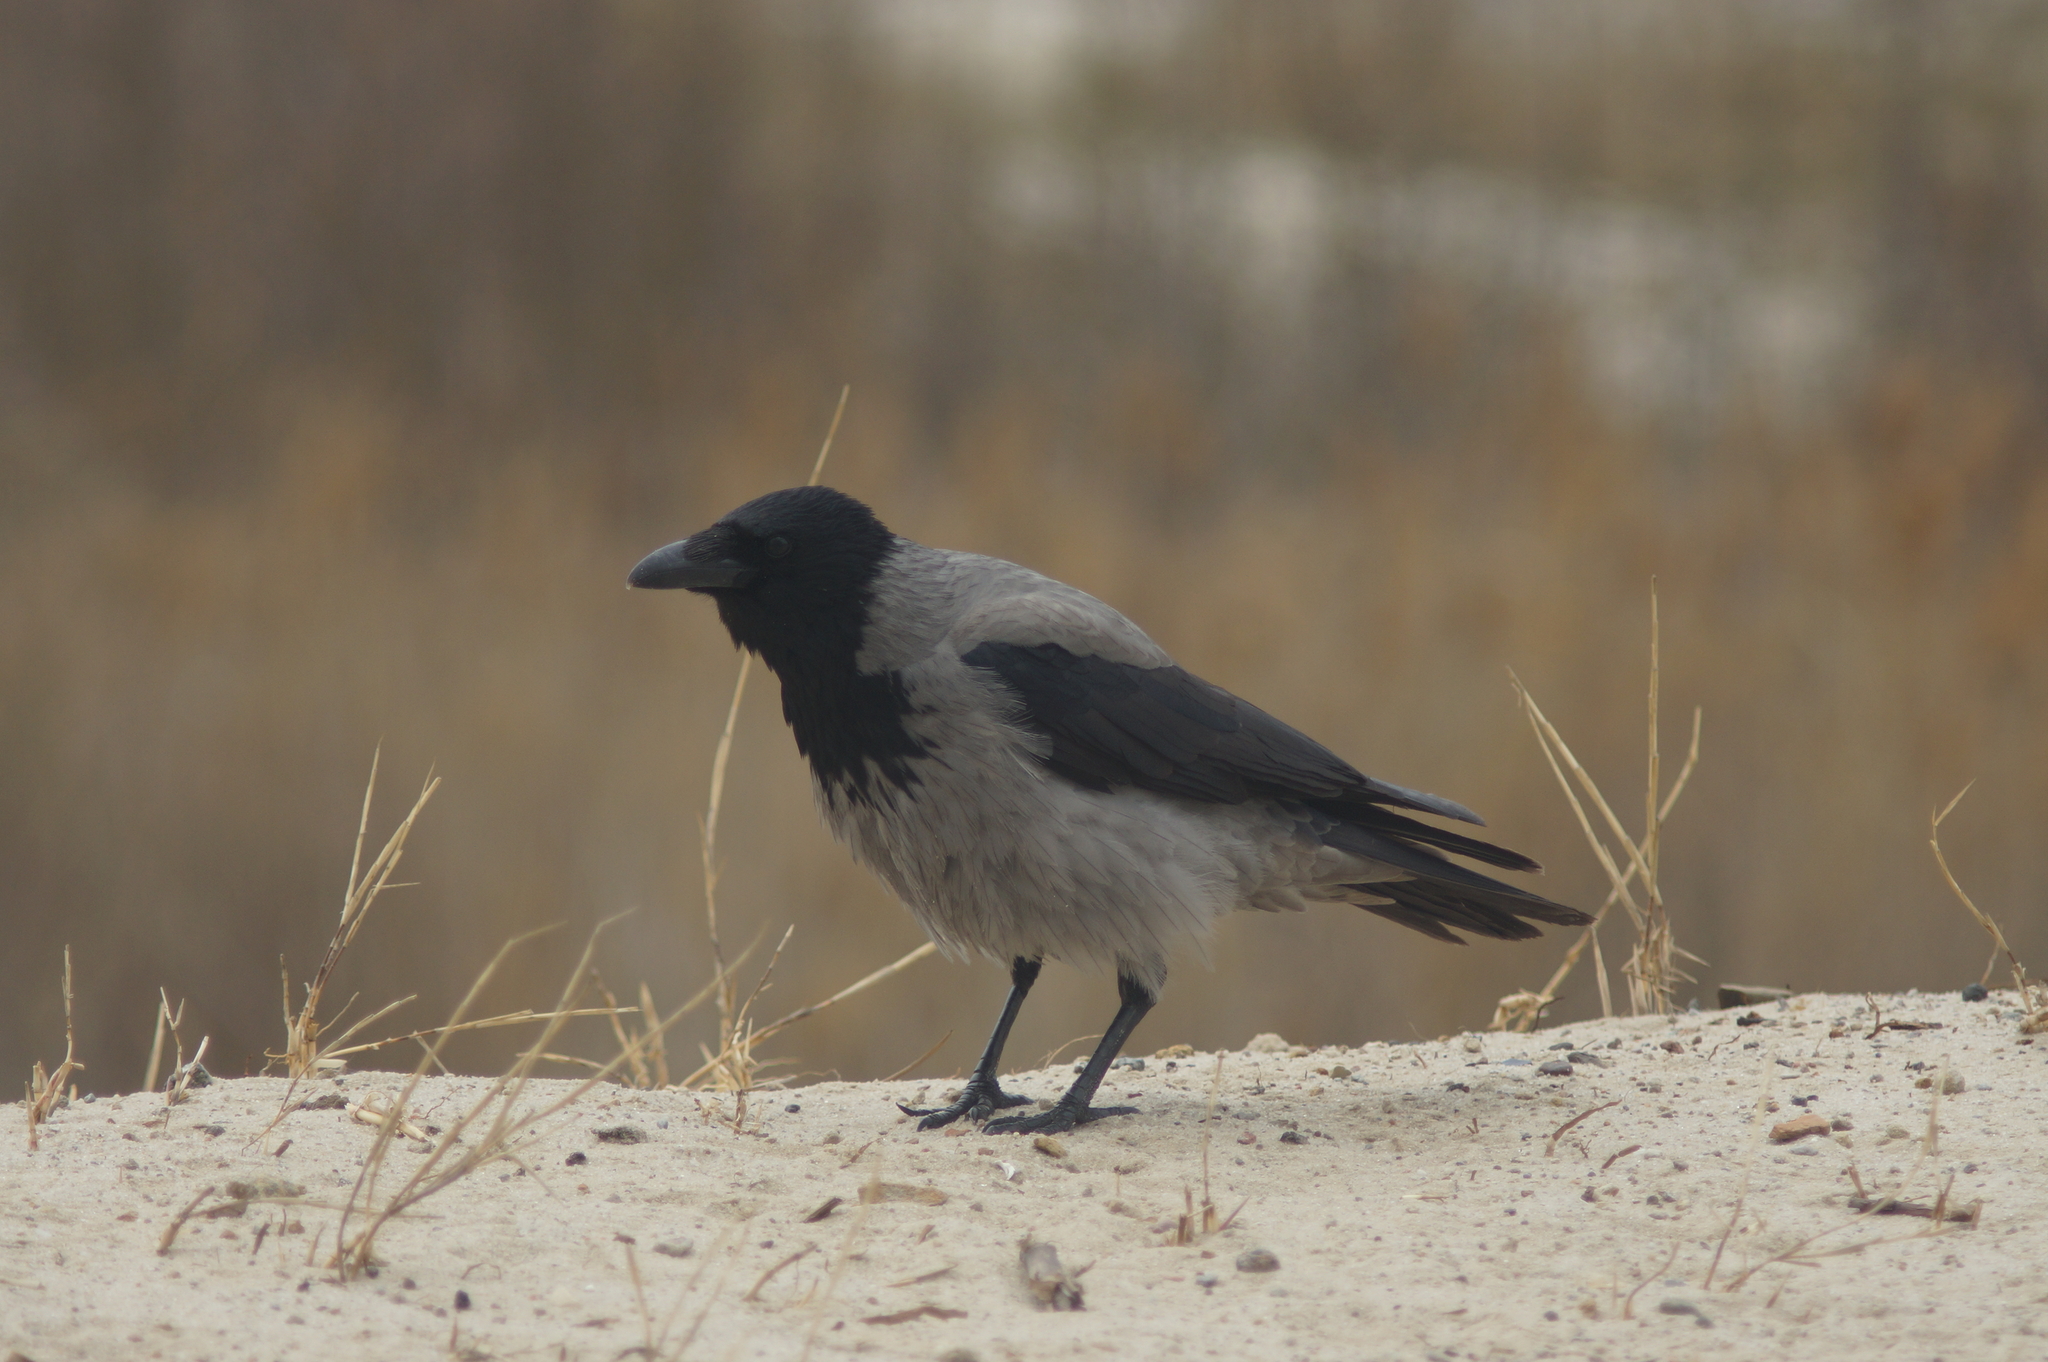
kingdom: Animalia
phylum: Chordata
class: Aves
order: Passeriformes
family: Corvidae
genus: Corvus
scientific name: Corvus cornix
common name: Hooded crow
